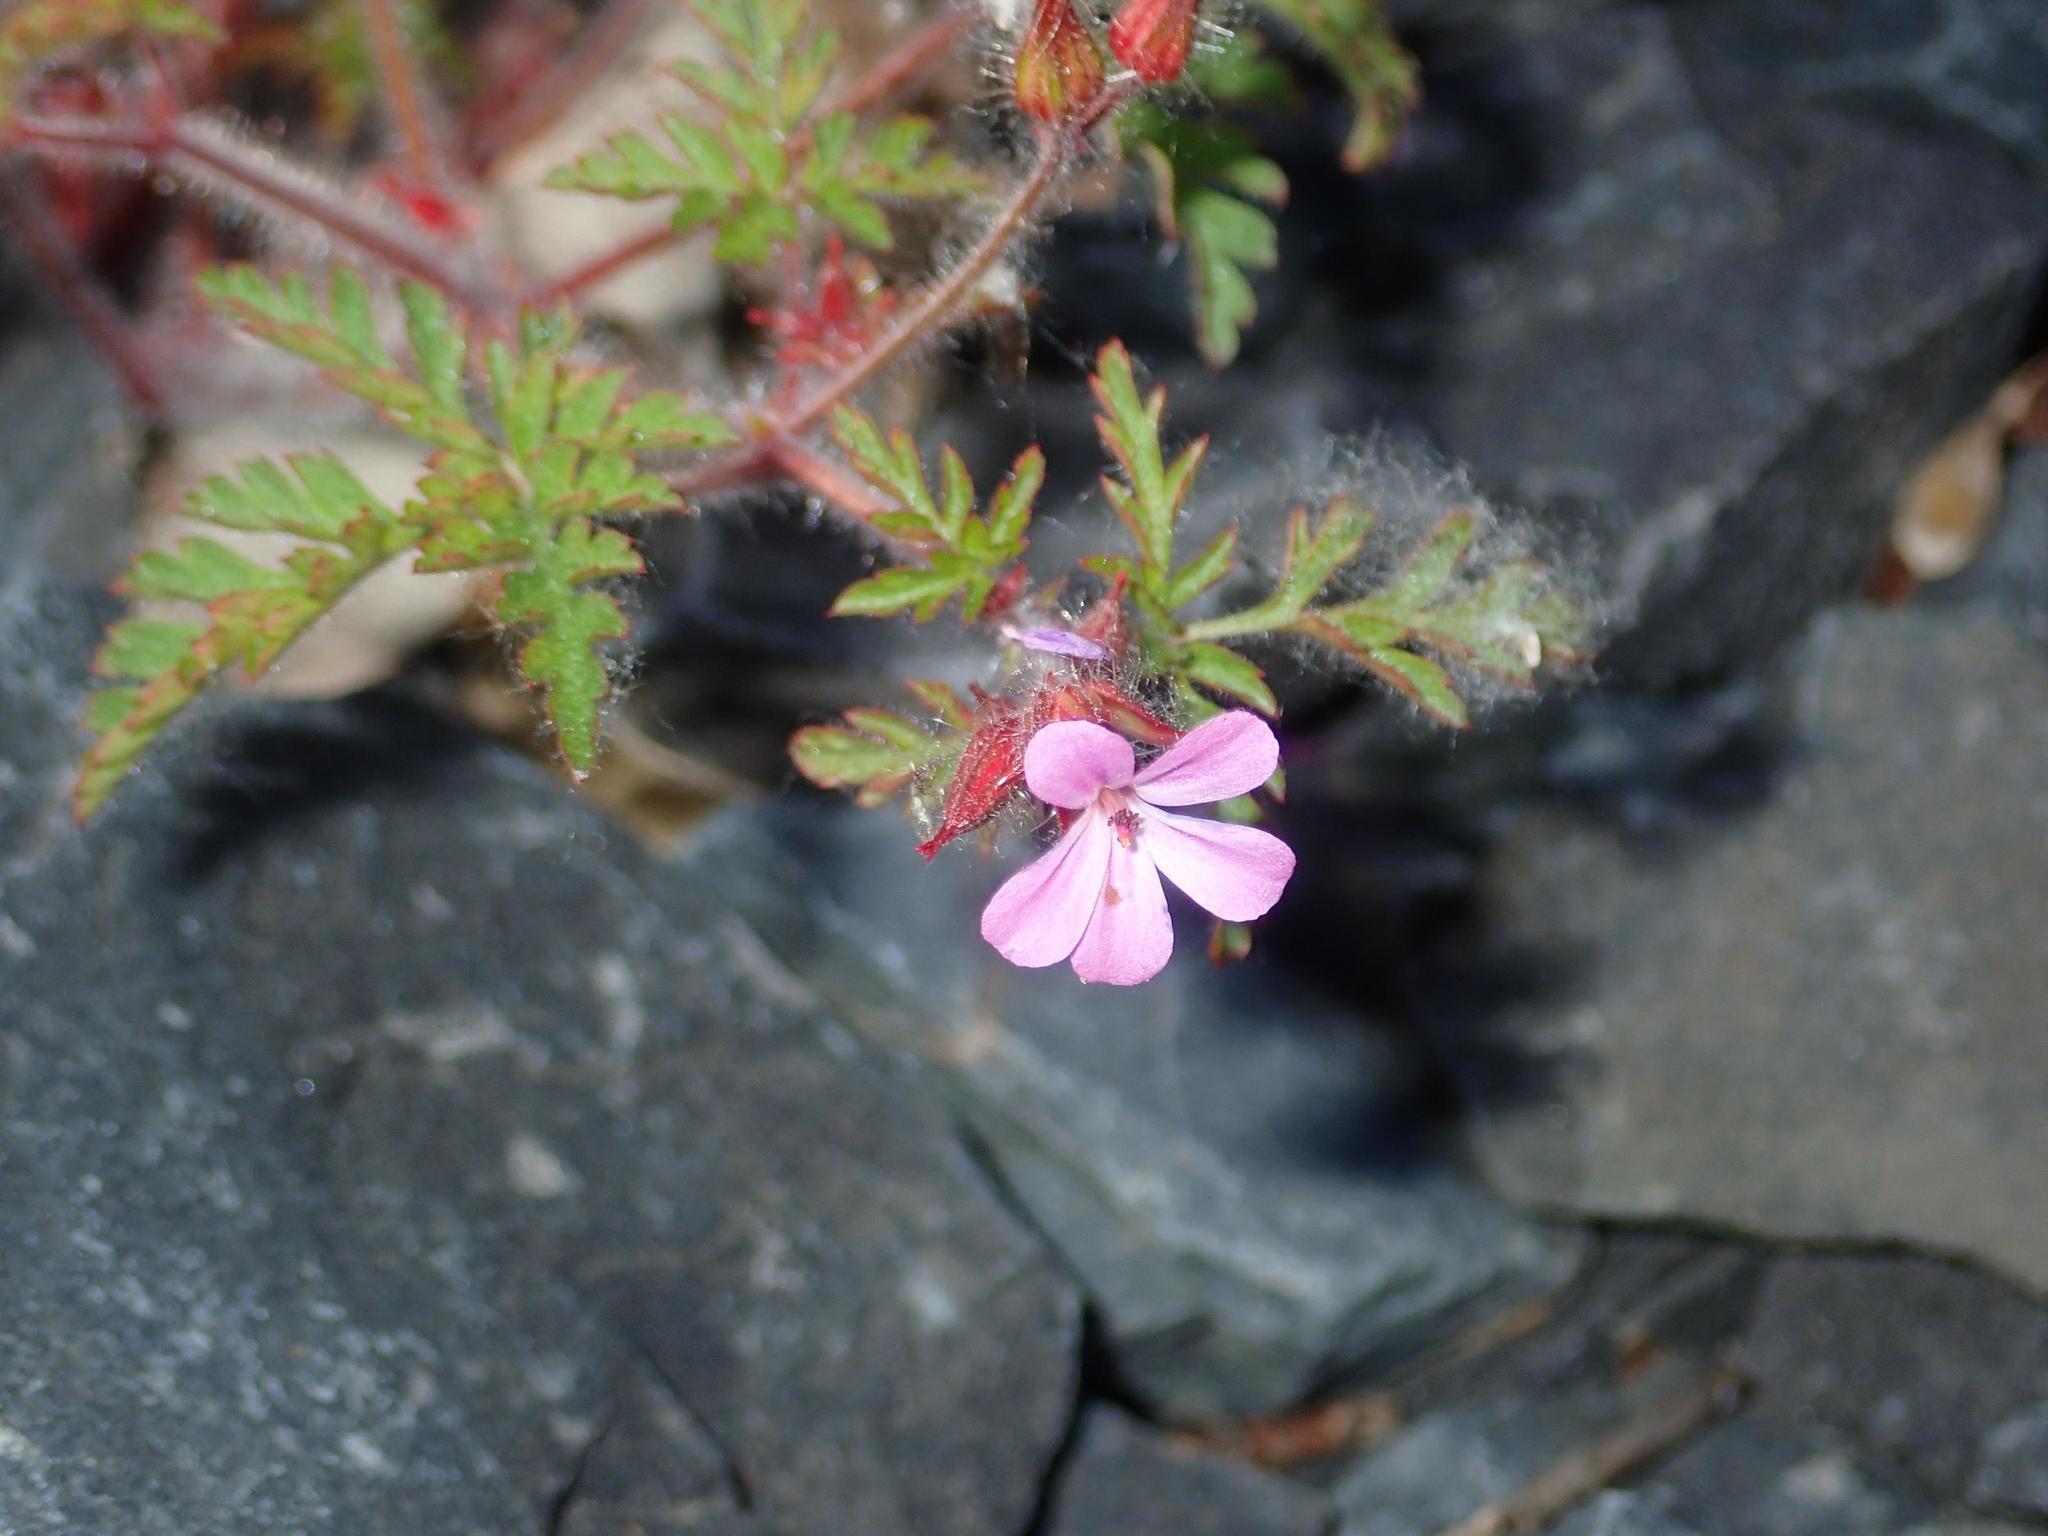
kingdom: Plantae
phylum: Tracheophyta
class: Magnoliopsida
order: Geraniales
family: Geraniaceae
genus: Geranium
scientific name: Geranium robertianum
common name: Herb-robert
